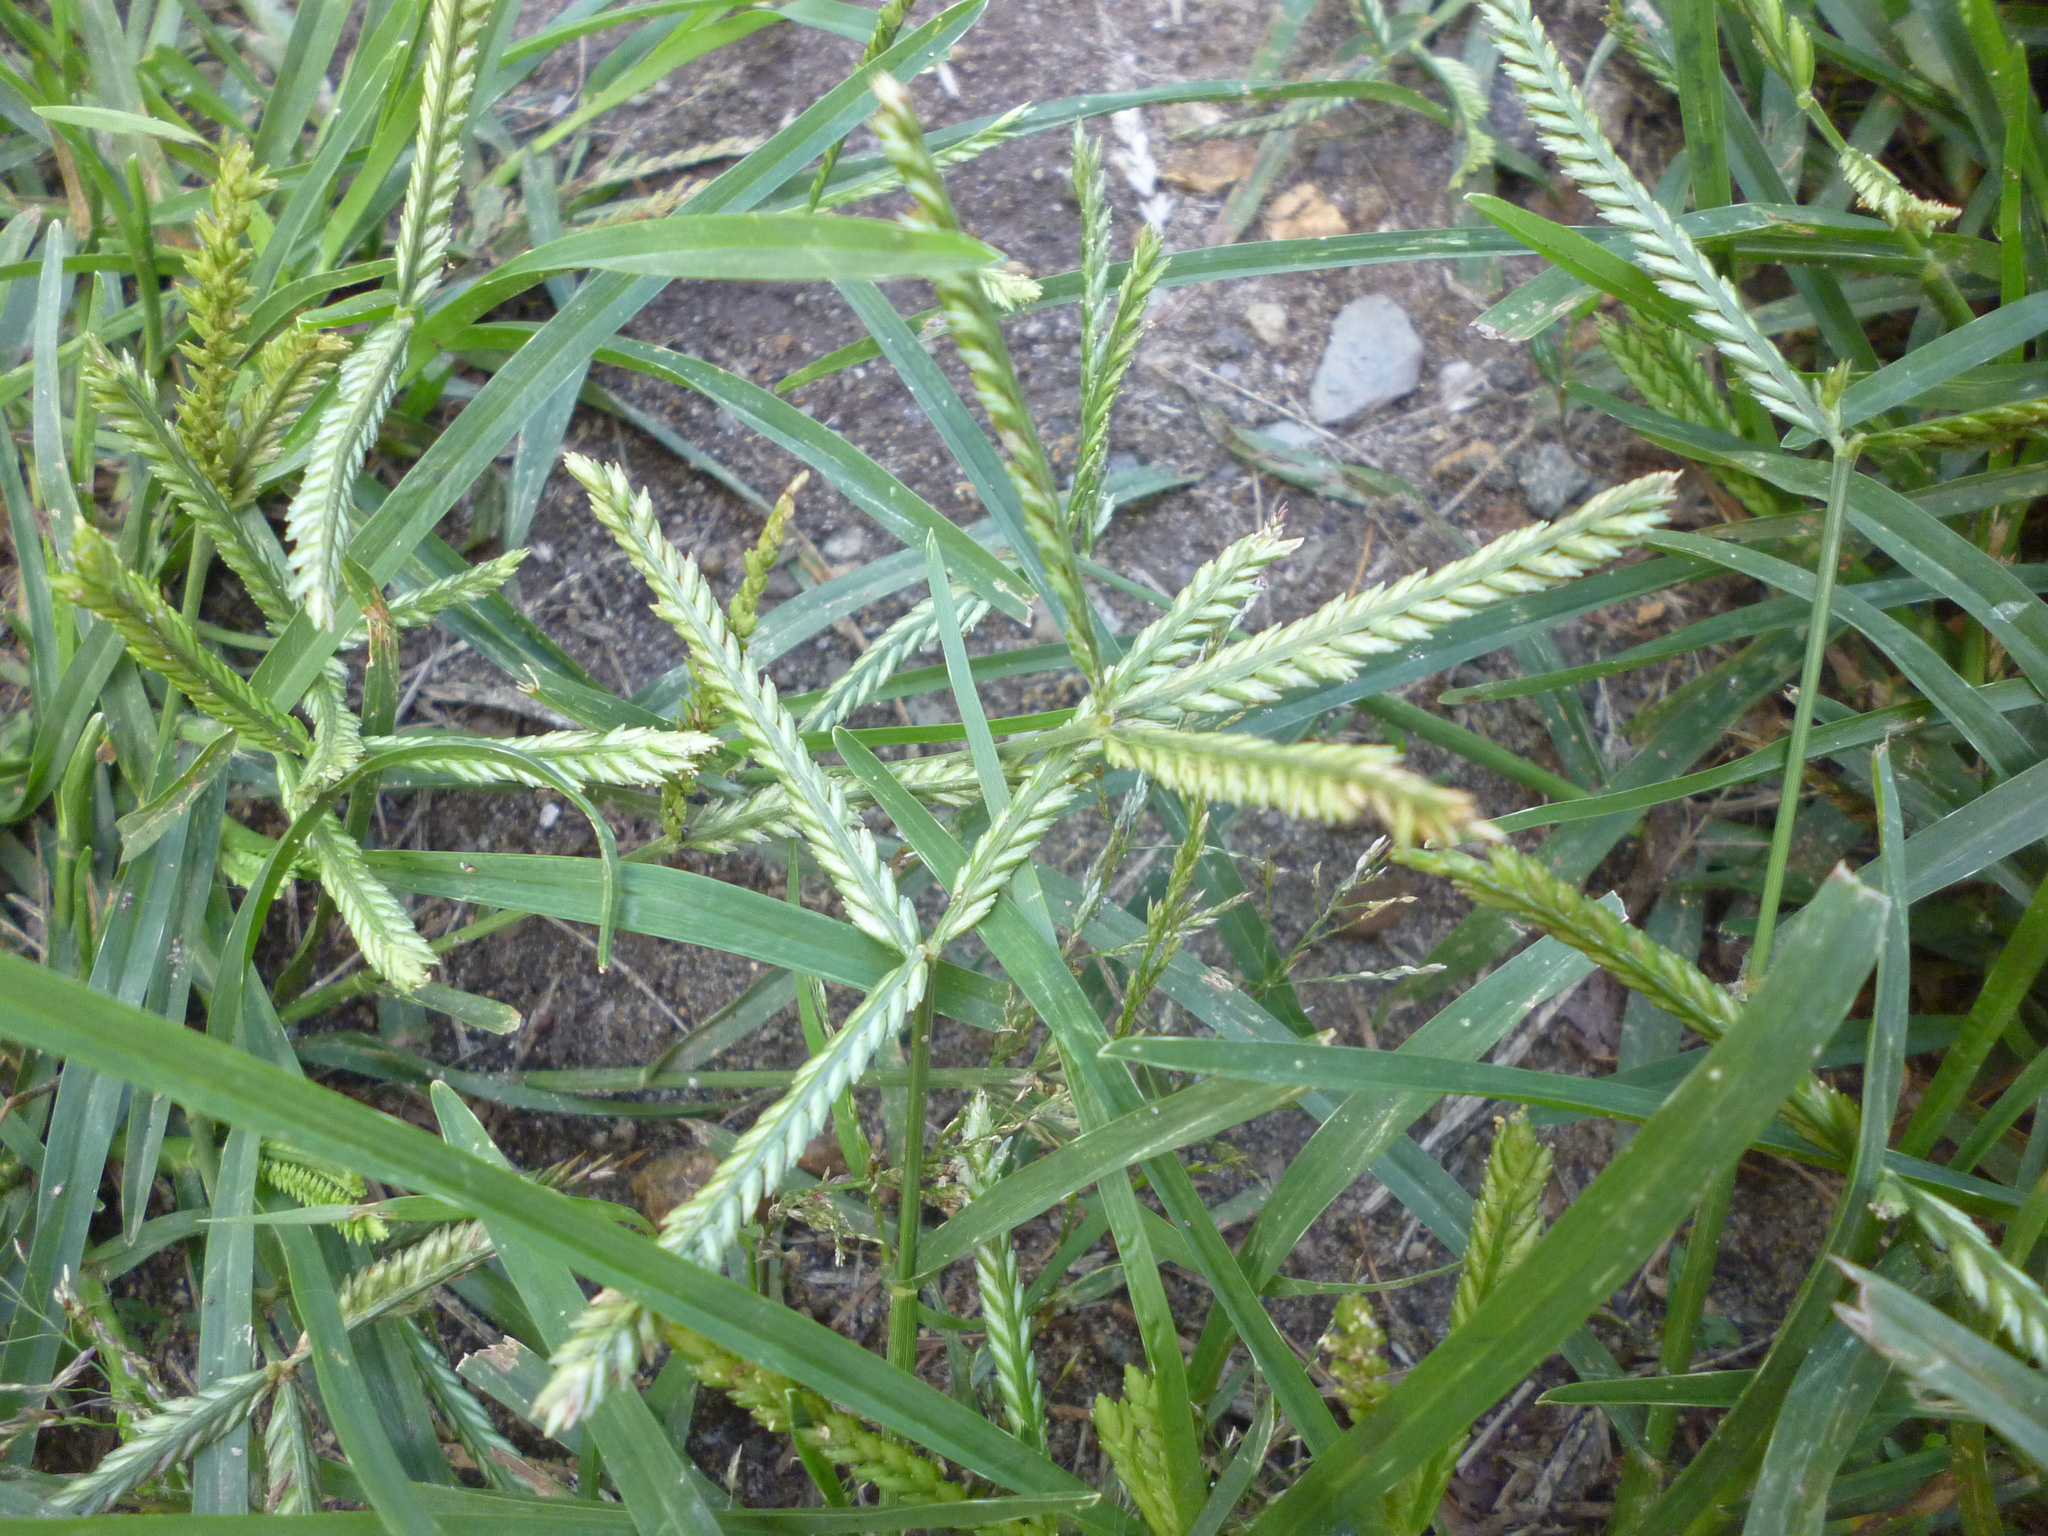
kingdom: Plantae
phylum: Tracheophyta
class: Liliopsida
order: Poales
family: Poaceae
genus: Eleusine
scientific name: Eleusine indica
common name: Yard-grass
